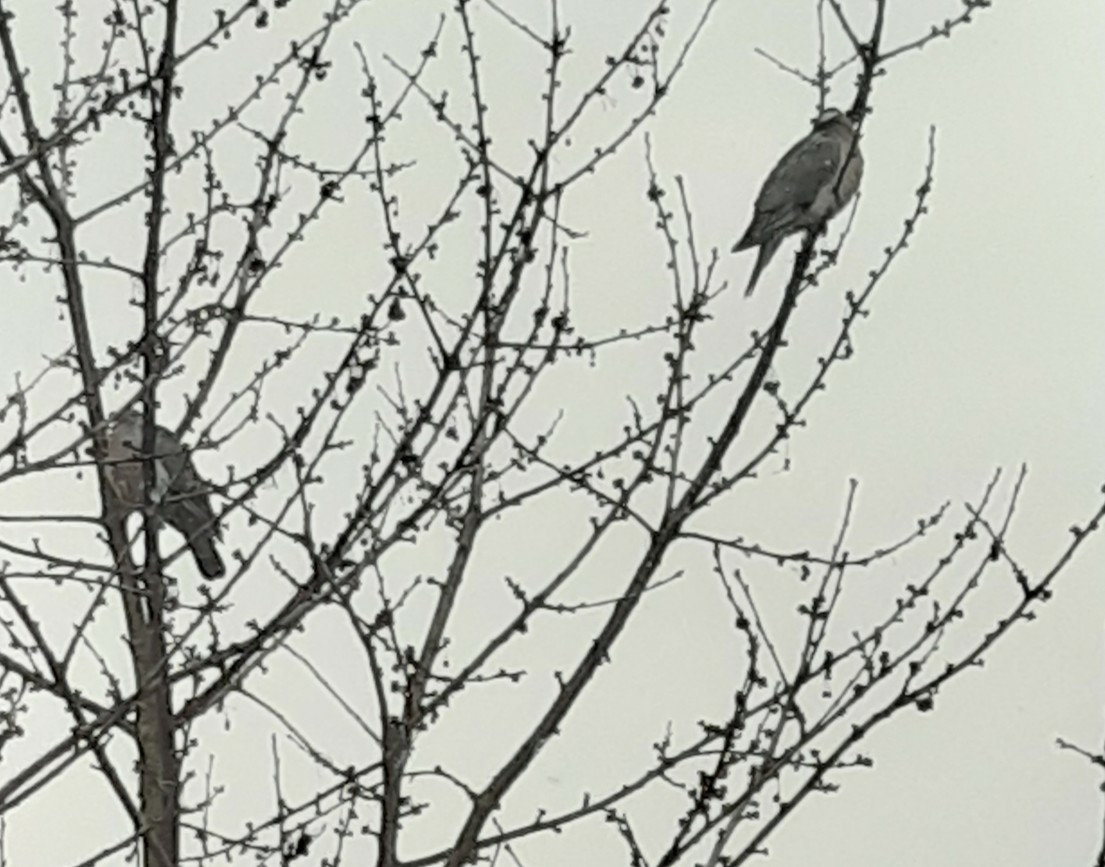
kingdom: Animalia
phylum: Chordata
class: Aves
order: Columbiformes
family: Columbidae
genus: Columba
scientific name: Columba palumbus
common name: Common wood pigeon
